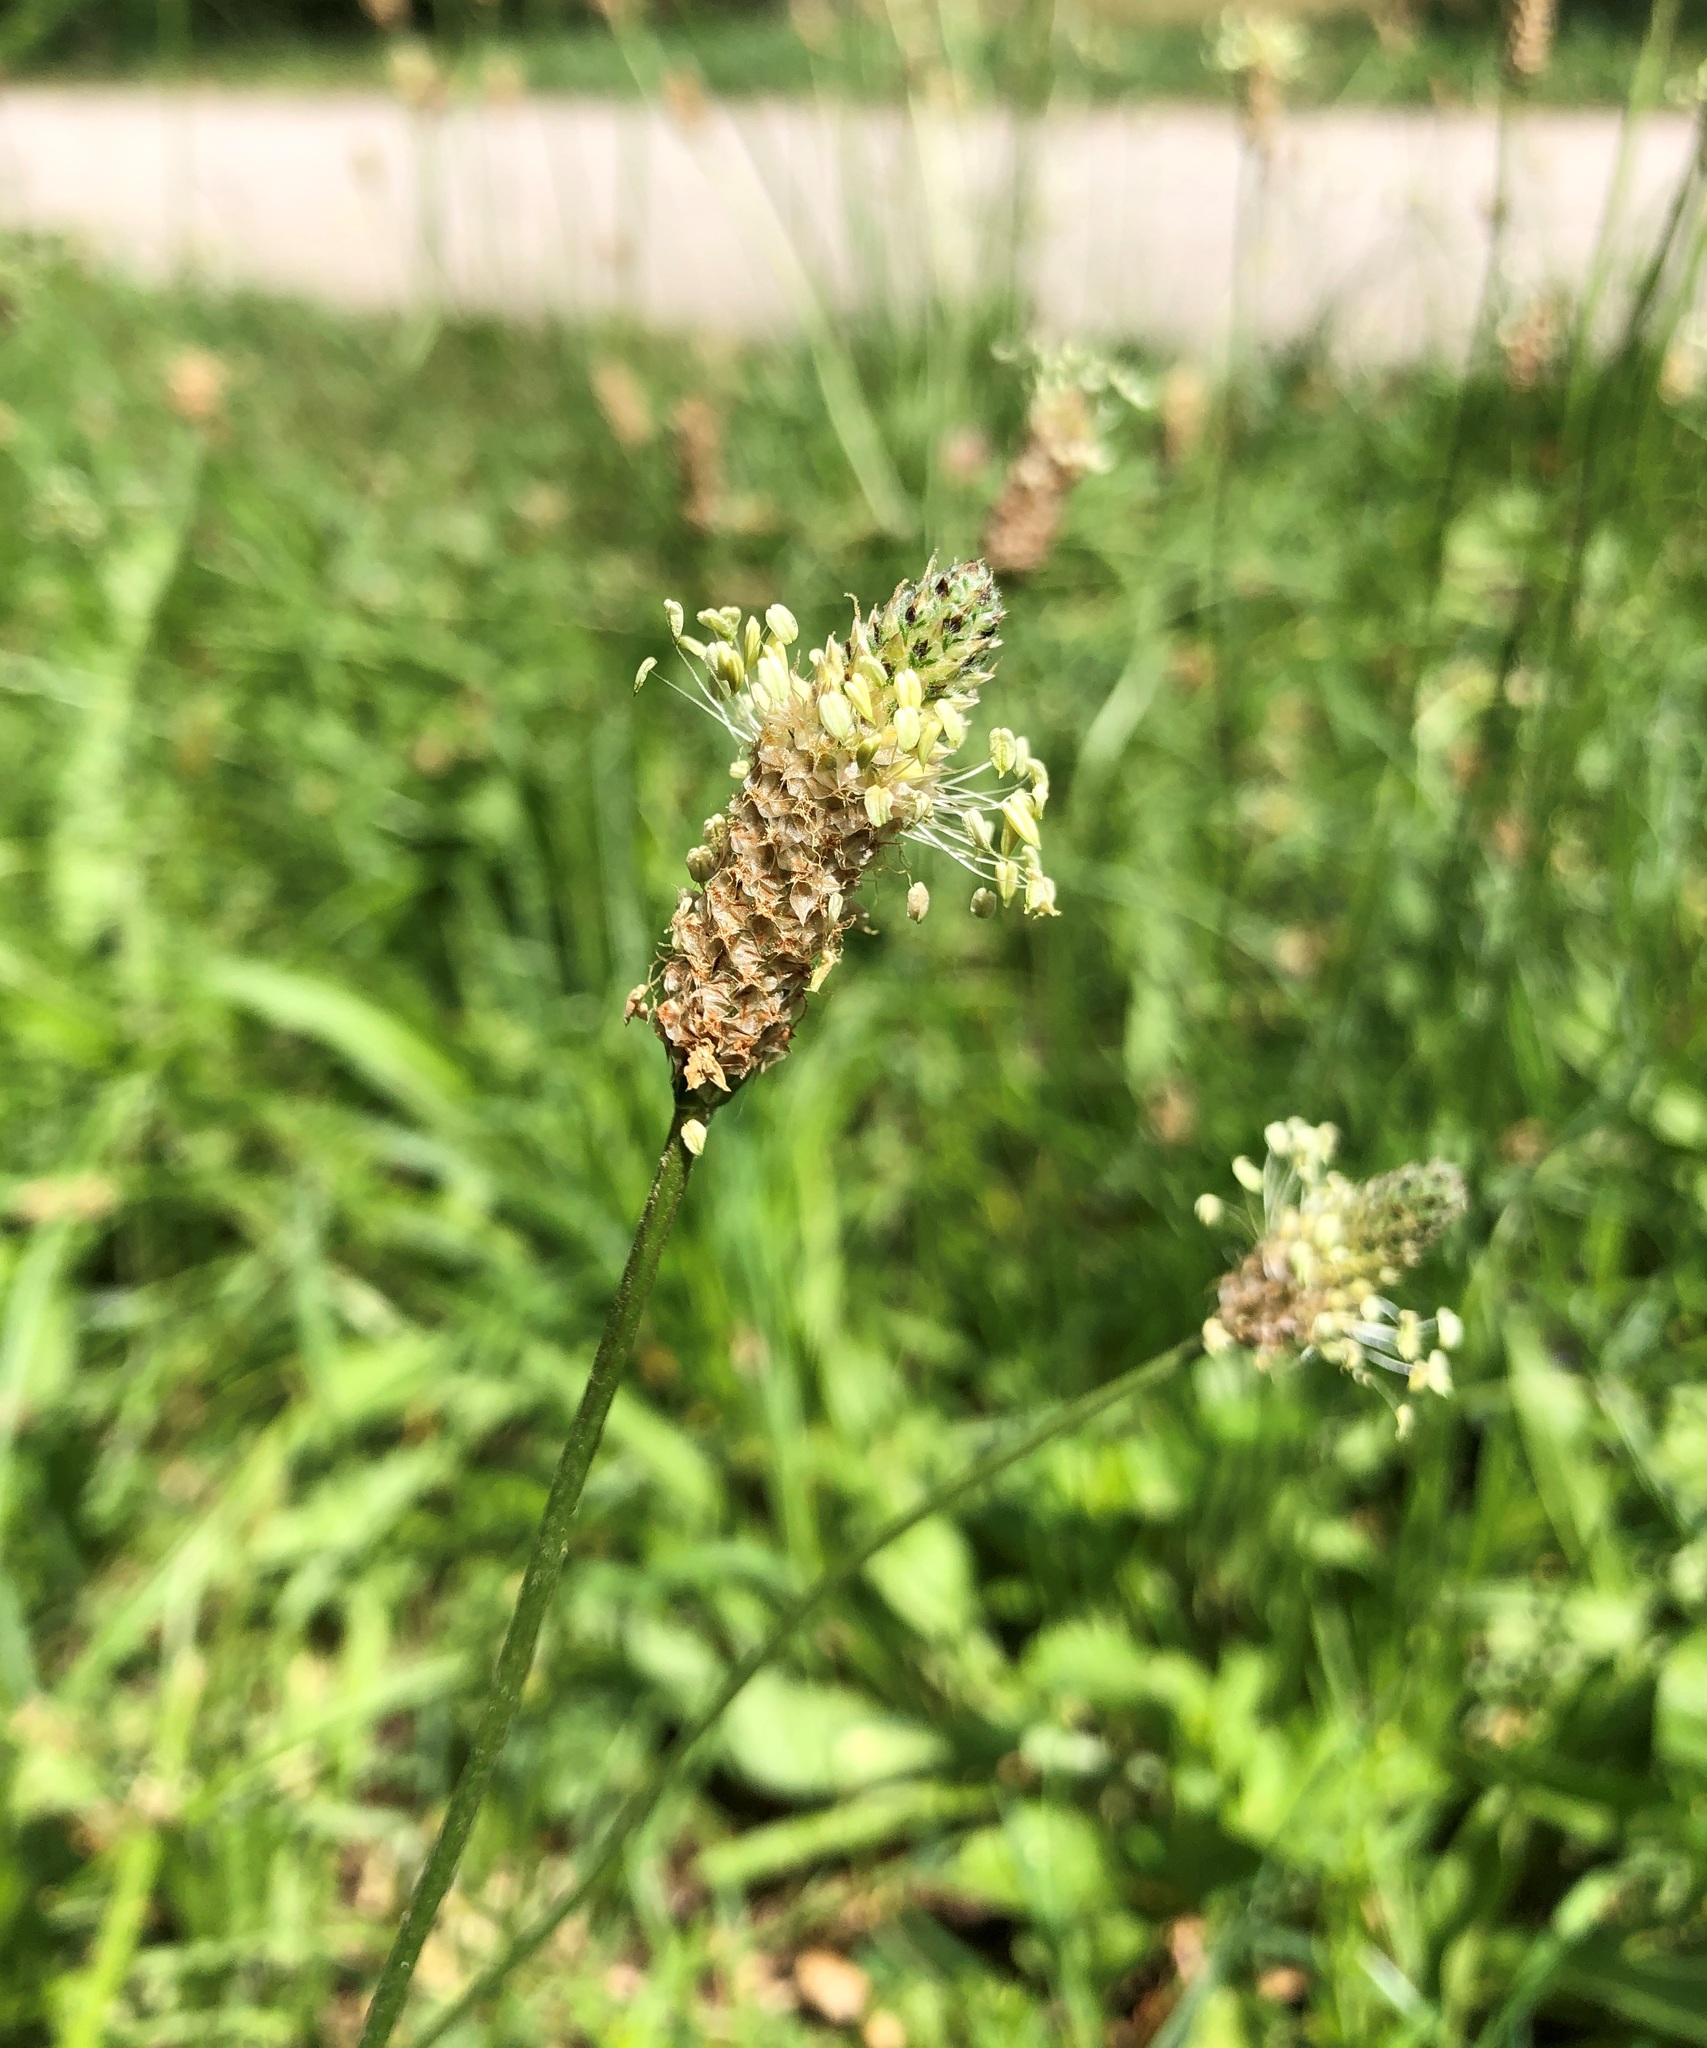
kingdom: Plantae
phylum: Tracheophyta
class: Magnoliopsida
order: Lamiales
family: Plantaginaceae
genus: Plantago
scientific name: Plantago lanceolata
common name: Ribwort plantain
